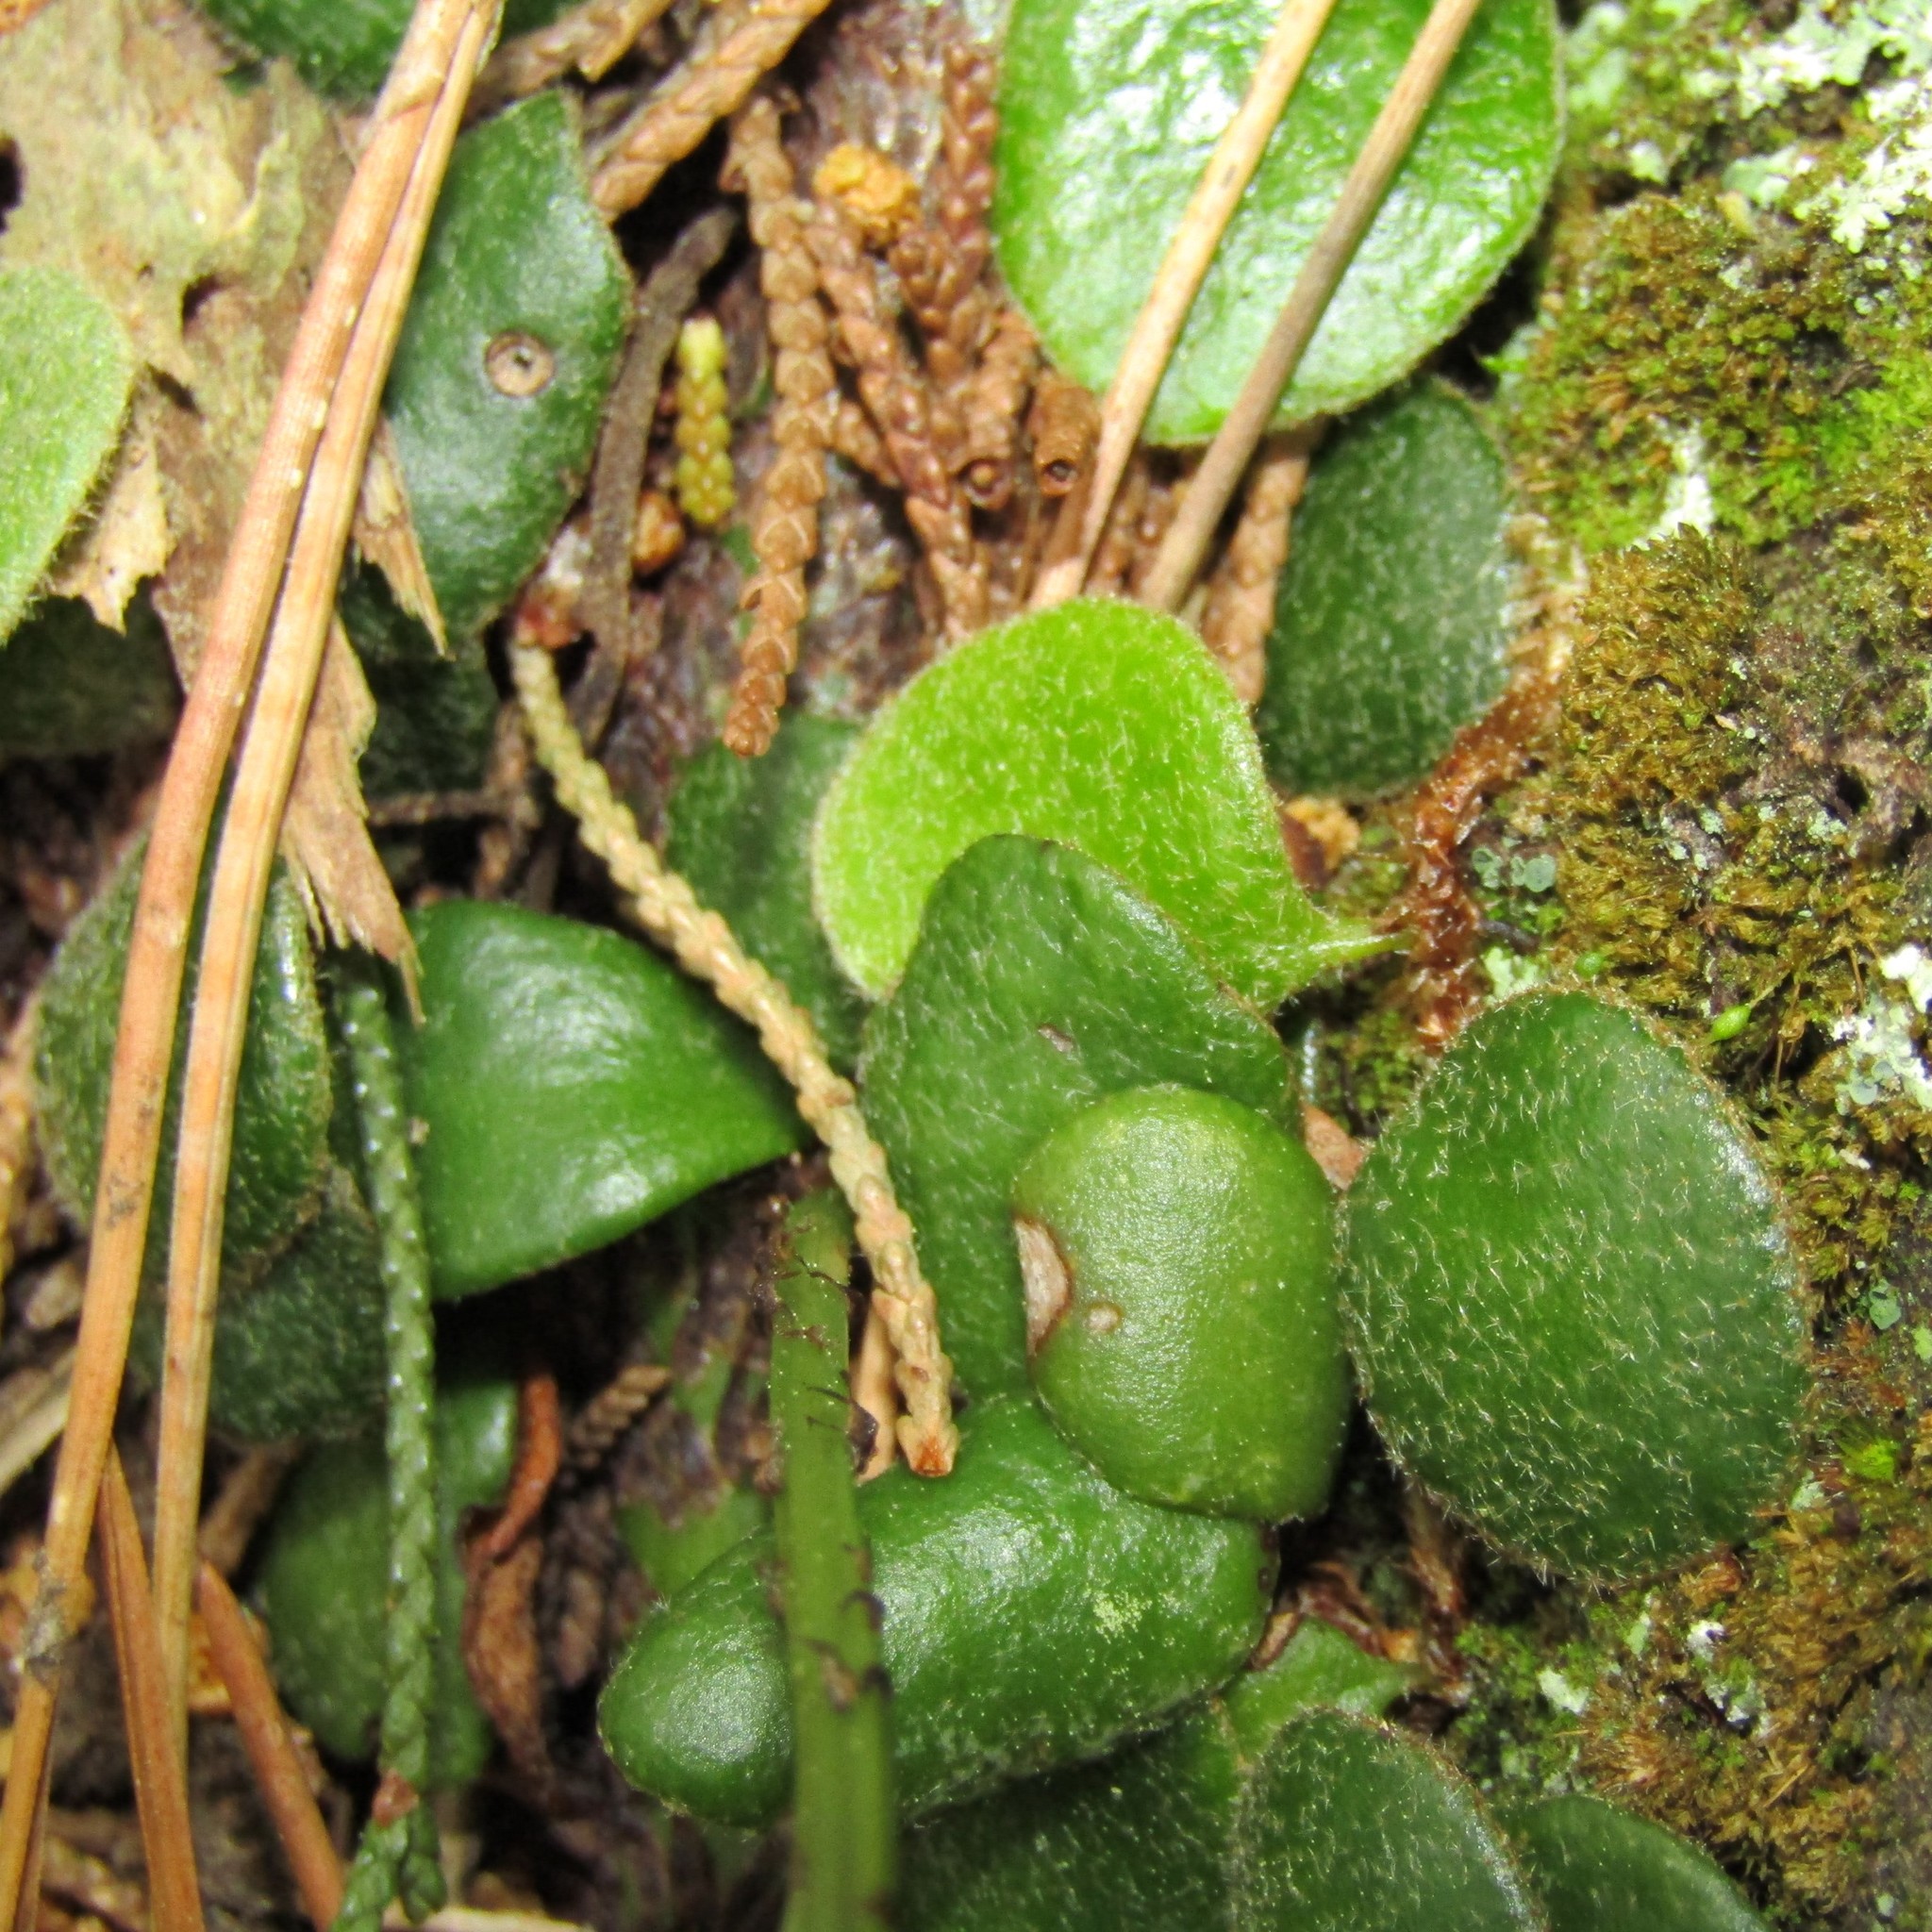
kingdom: Plantae
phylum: Tracheophyta
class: Polypodiopsida
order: Polypodiales
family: Polypodiaceae
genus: Pyrrosia
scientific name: Pyrrosia eleagnifolia
